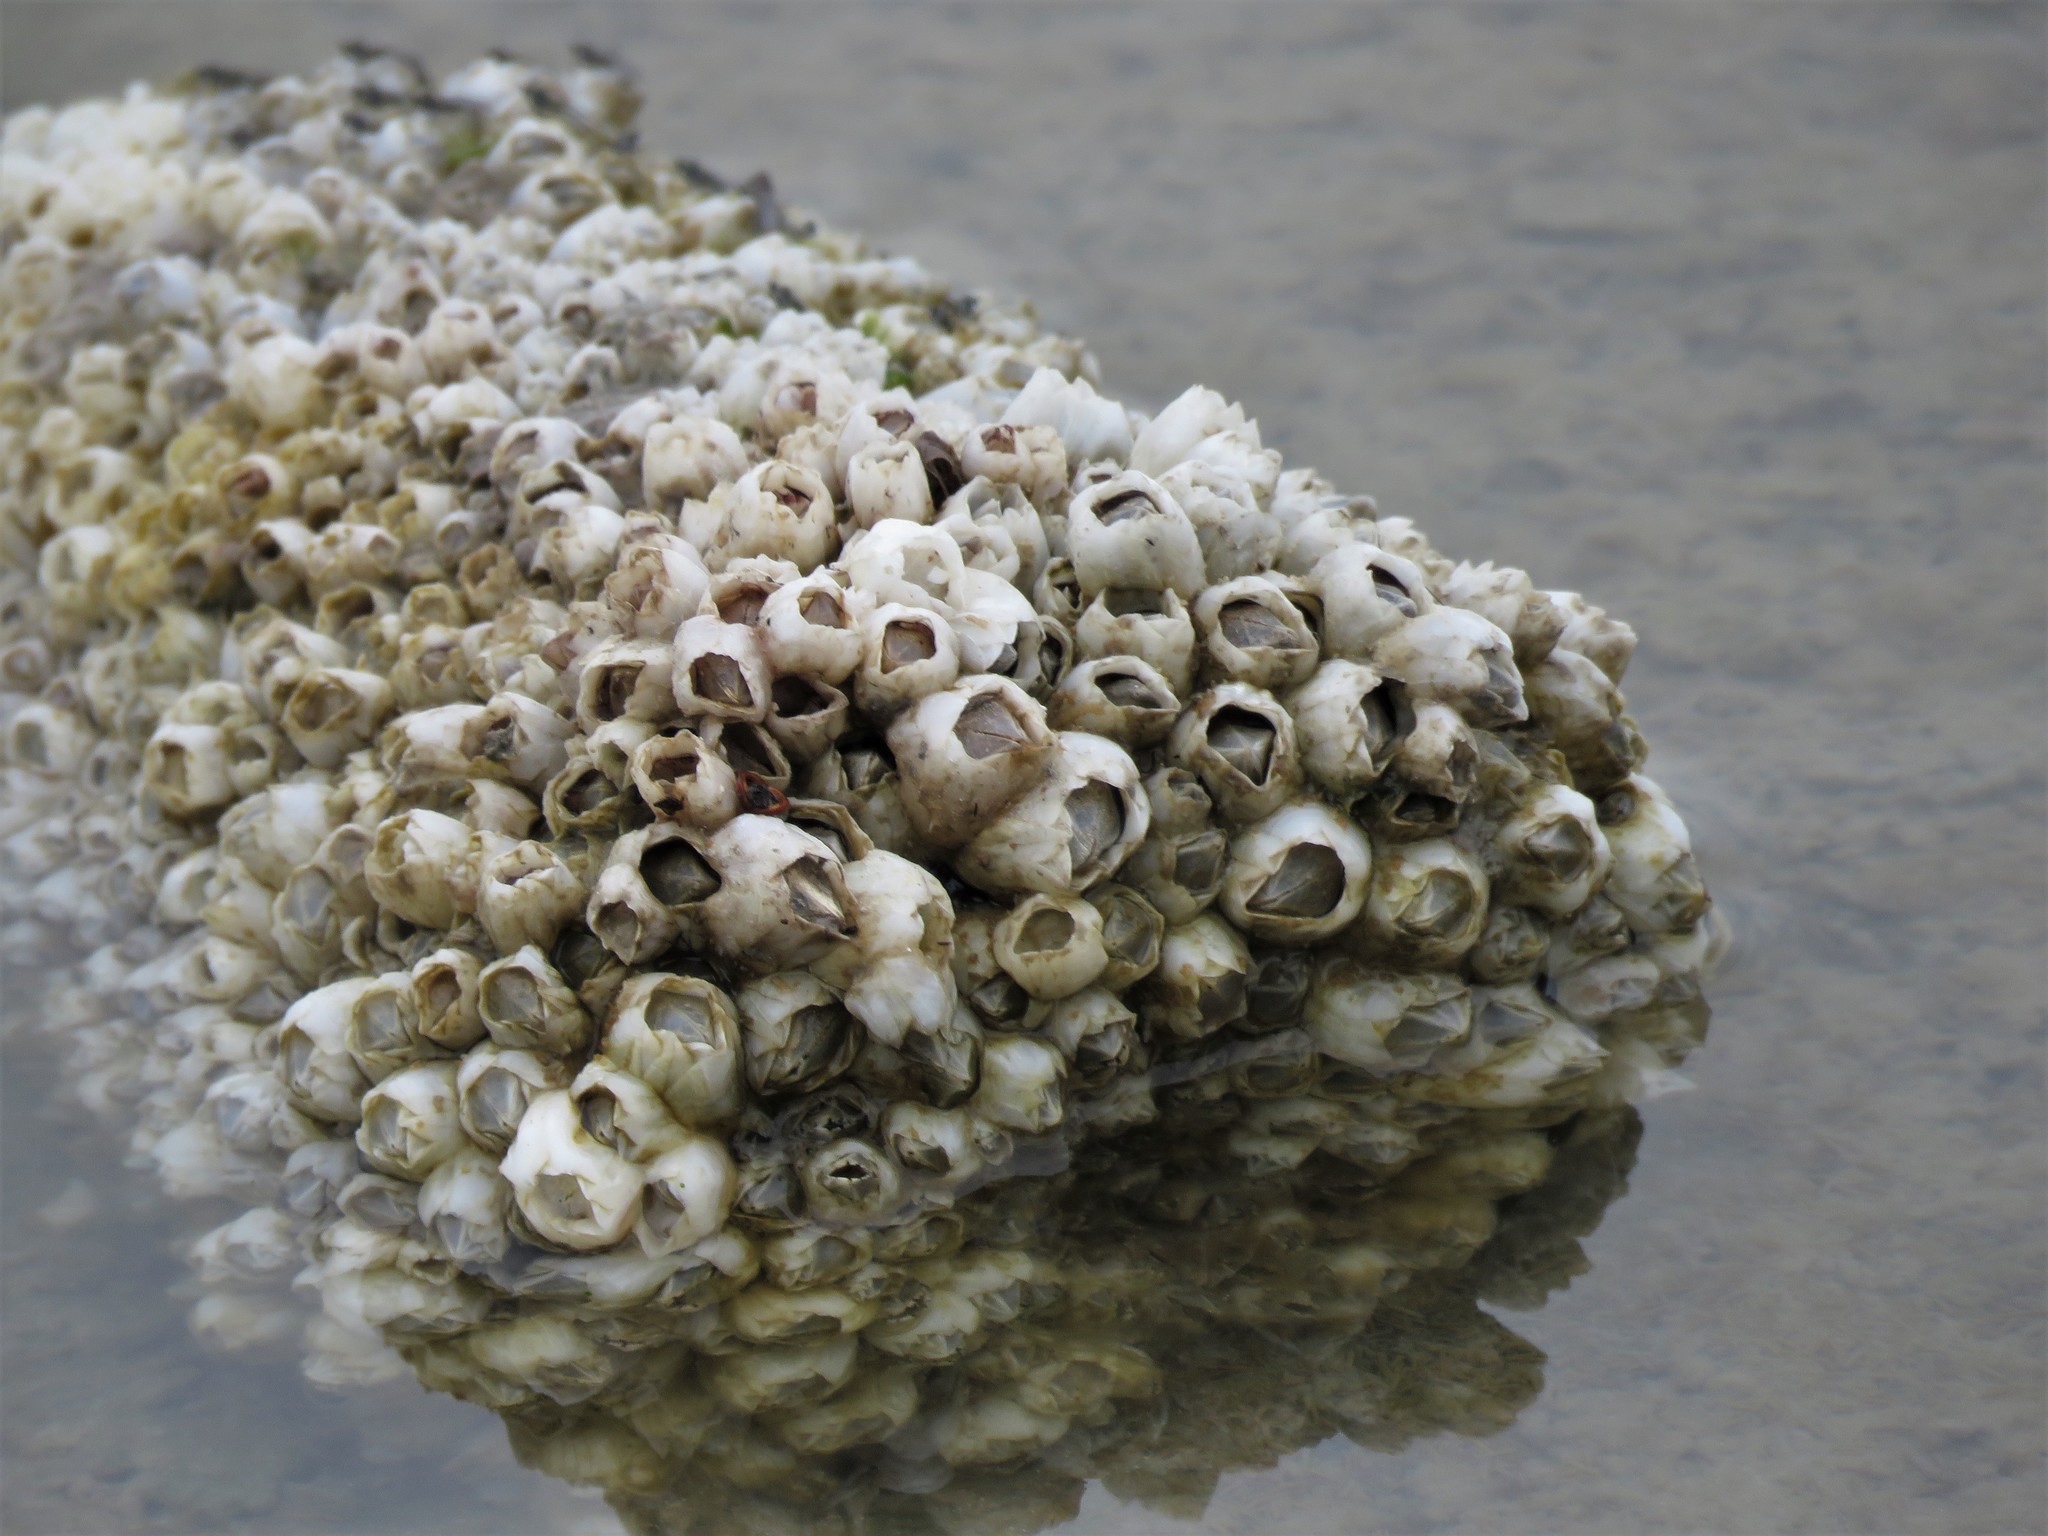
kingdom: Animalia
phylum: Arthropoda
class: Maxillopoda
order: Sessilia
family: Balanidae
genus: Amphibalanus
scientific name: Amphibalanus eburneus
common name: Ivory barnacle
